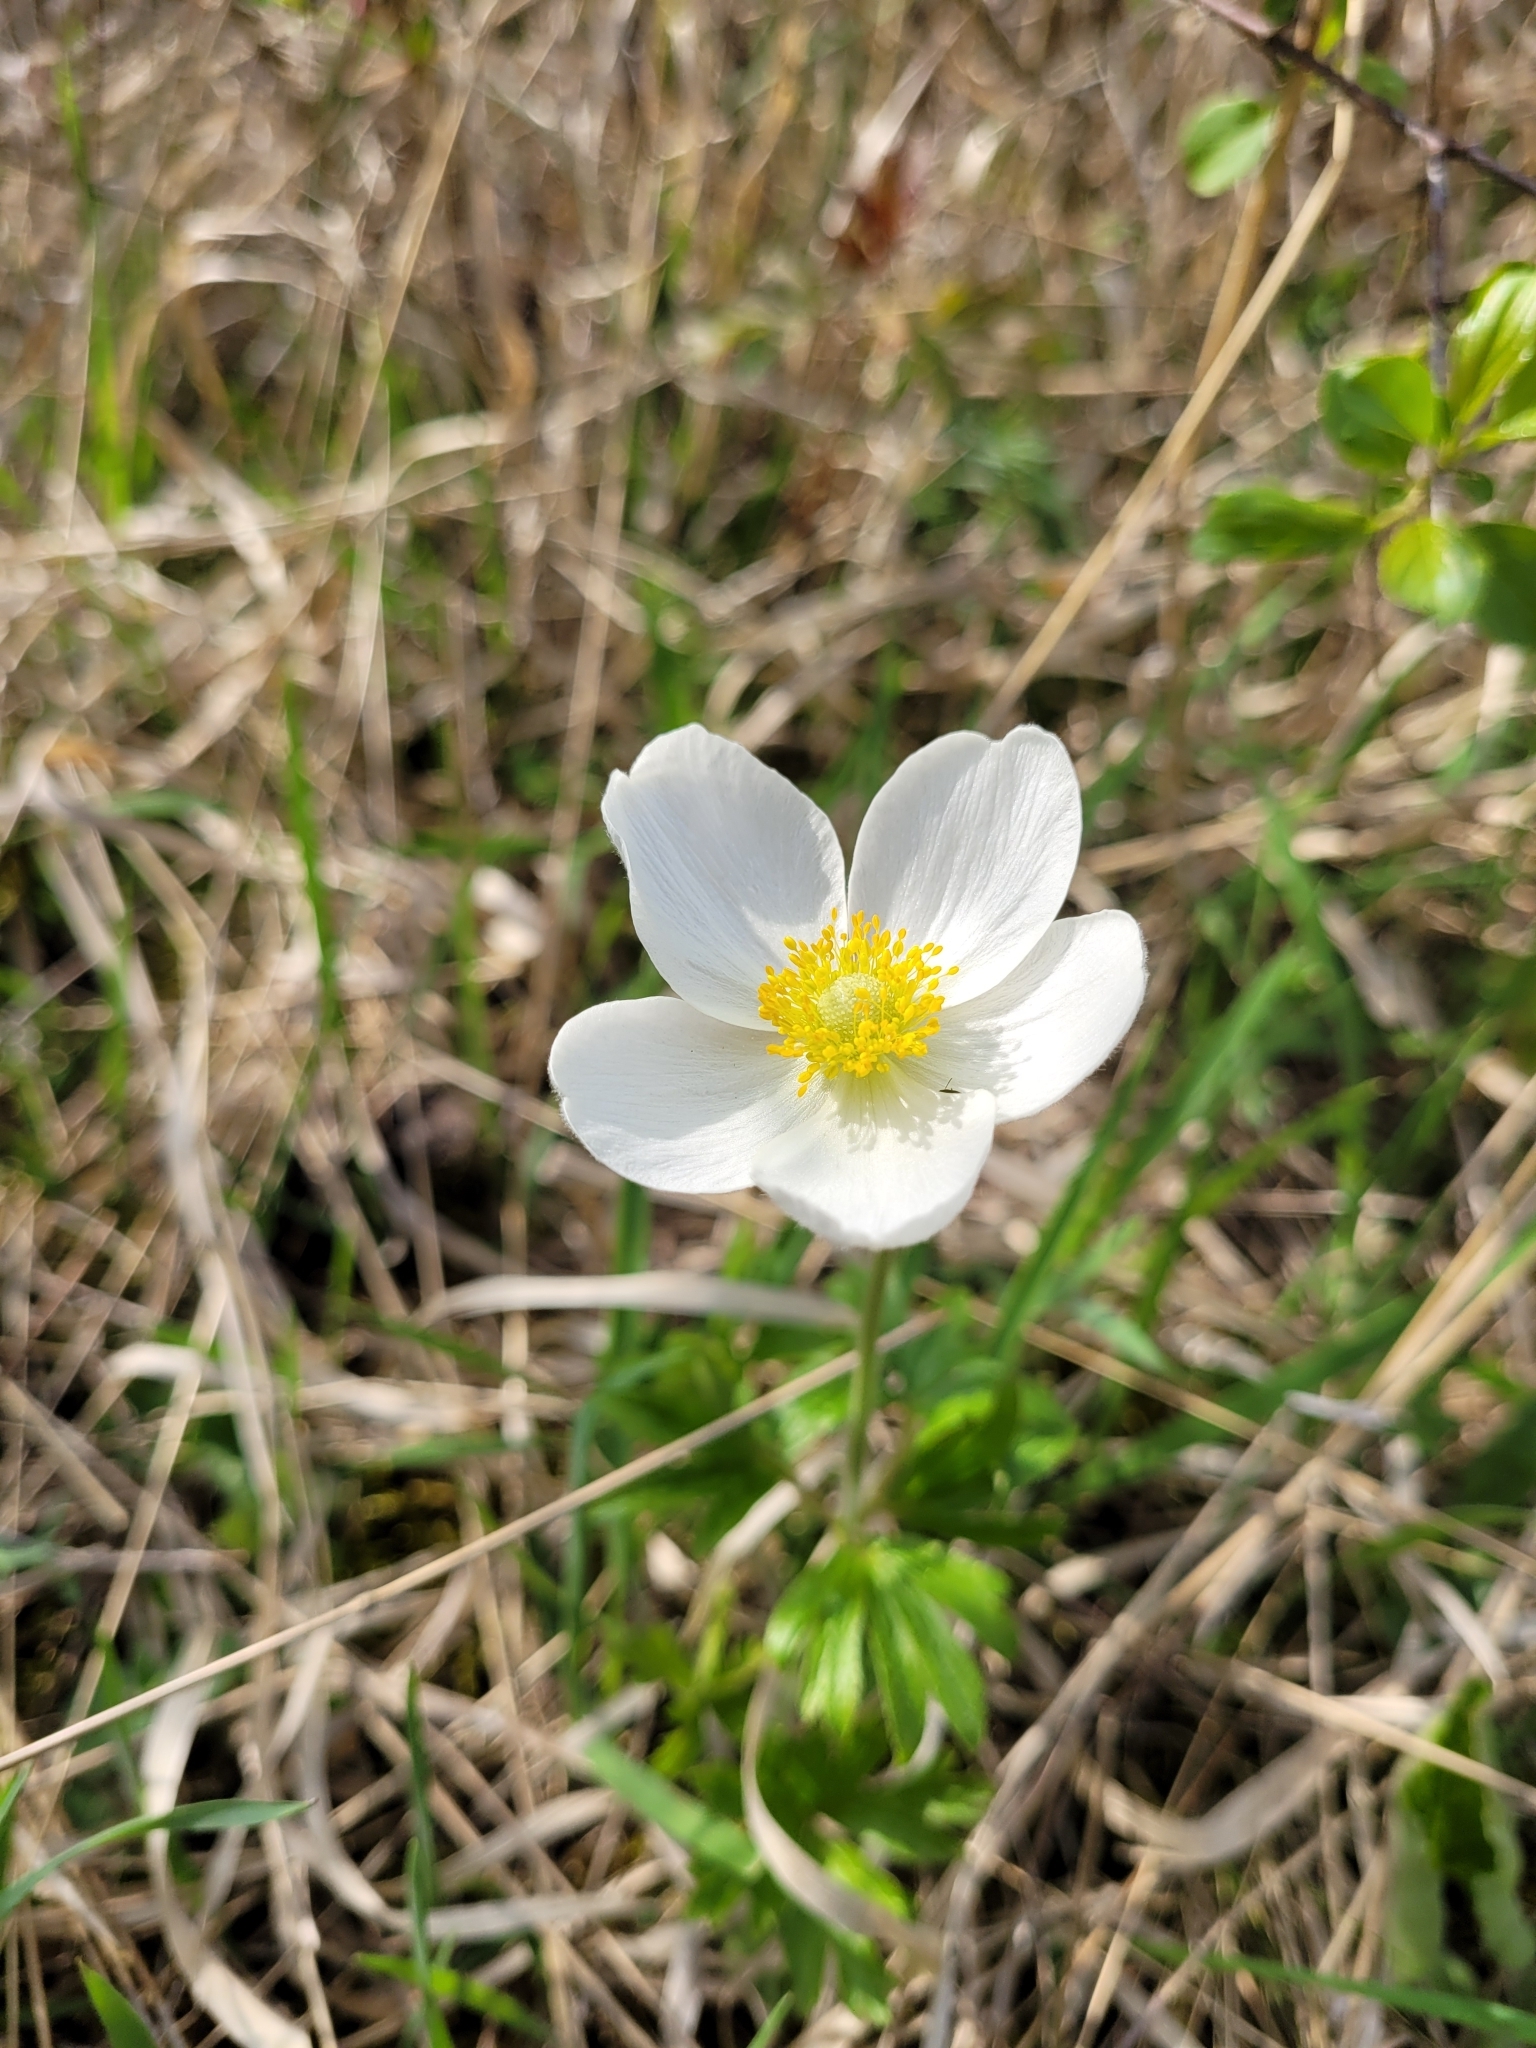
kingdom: Plantae
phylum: Tracheophyta
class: Magnoliopsida
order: Ranunculales
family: Ranunculaceae
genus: Anemone
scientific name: Anemone sylvestris
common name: Snowdrop anemone
